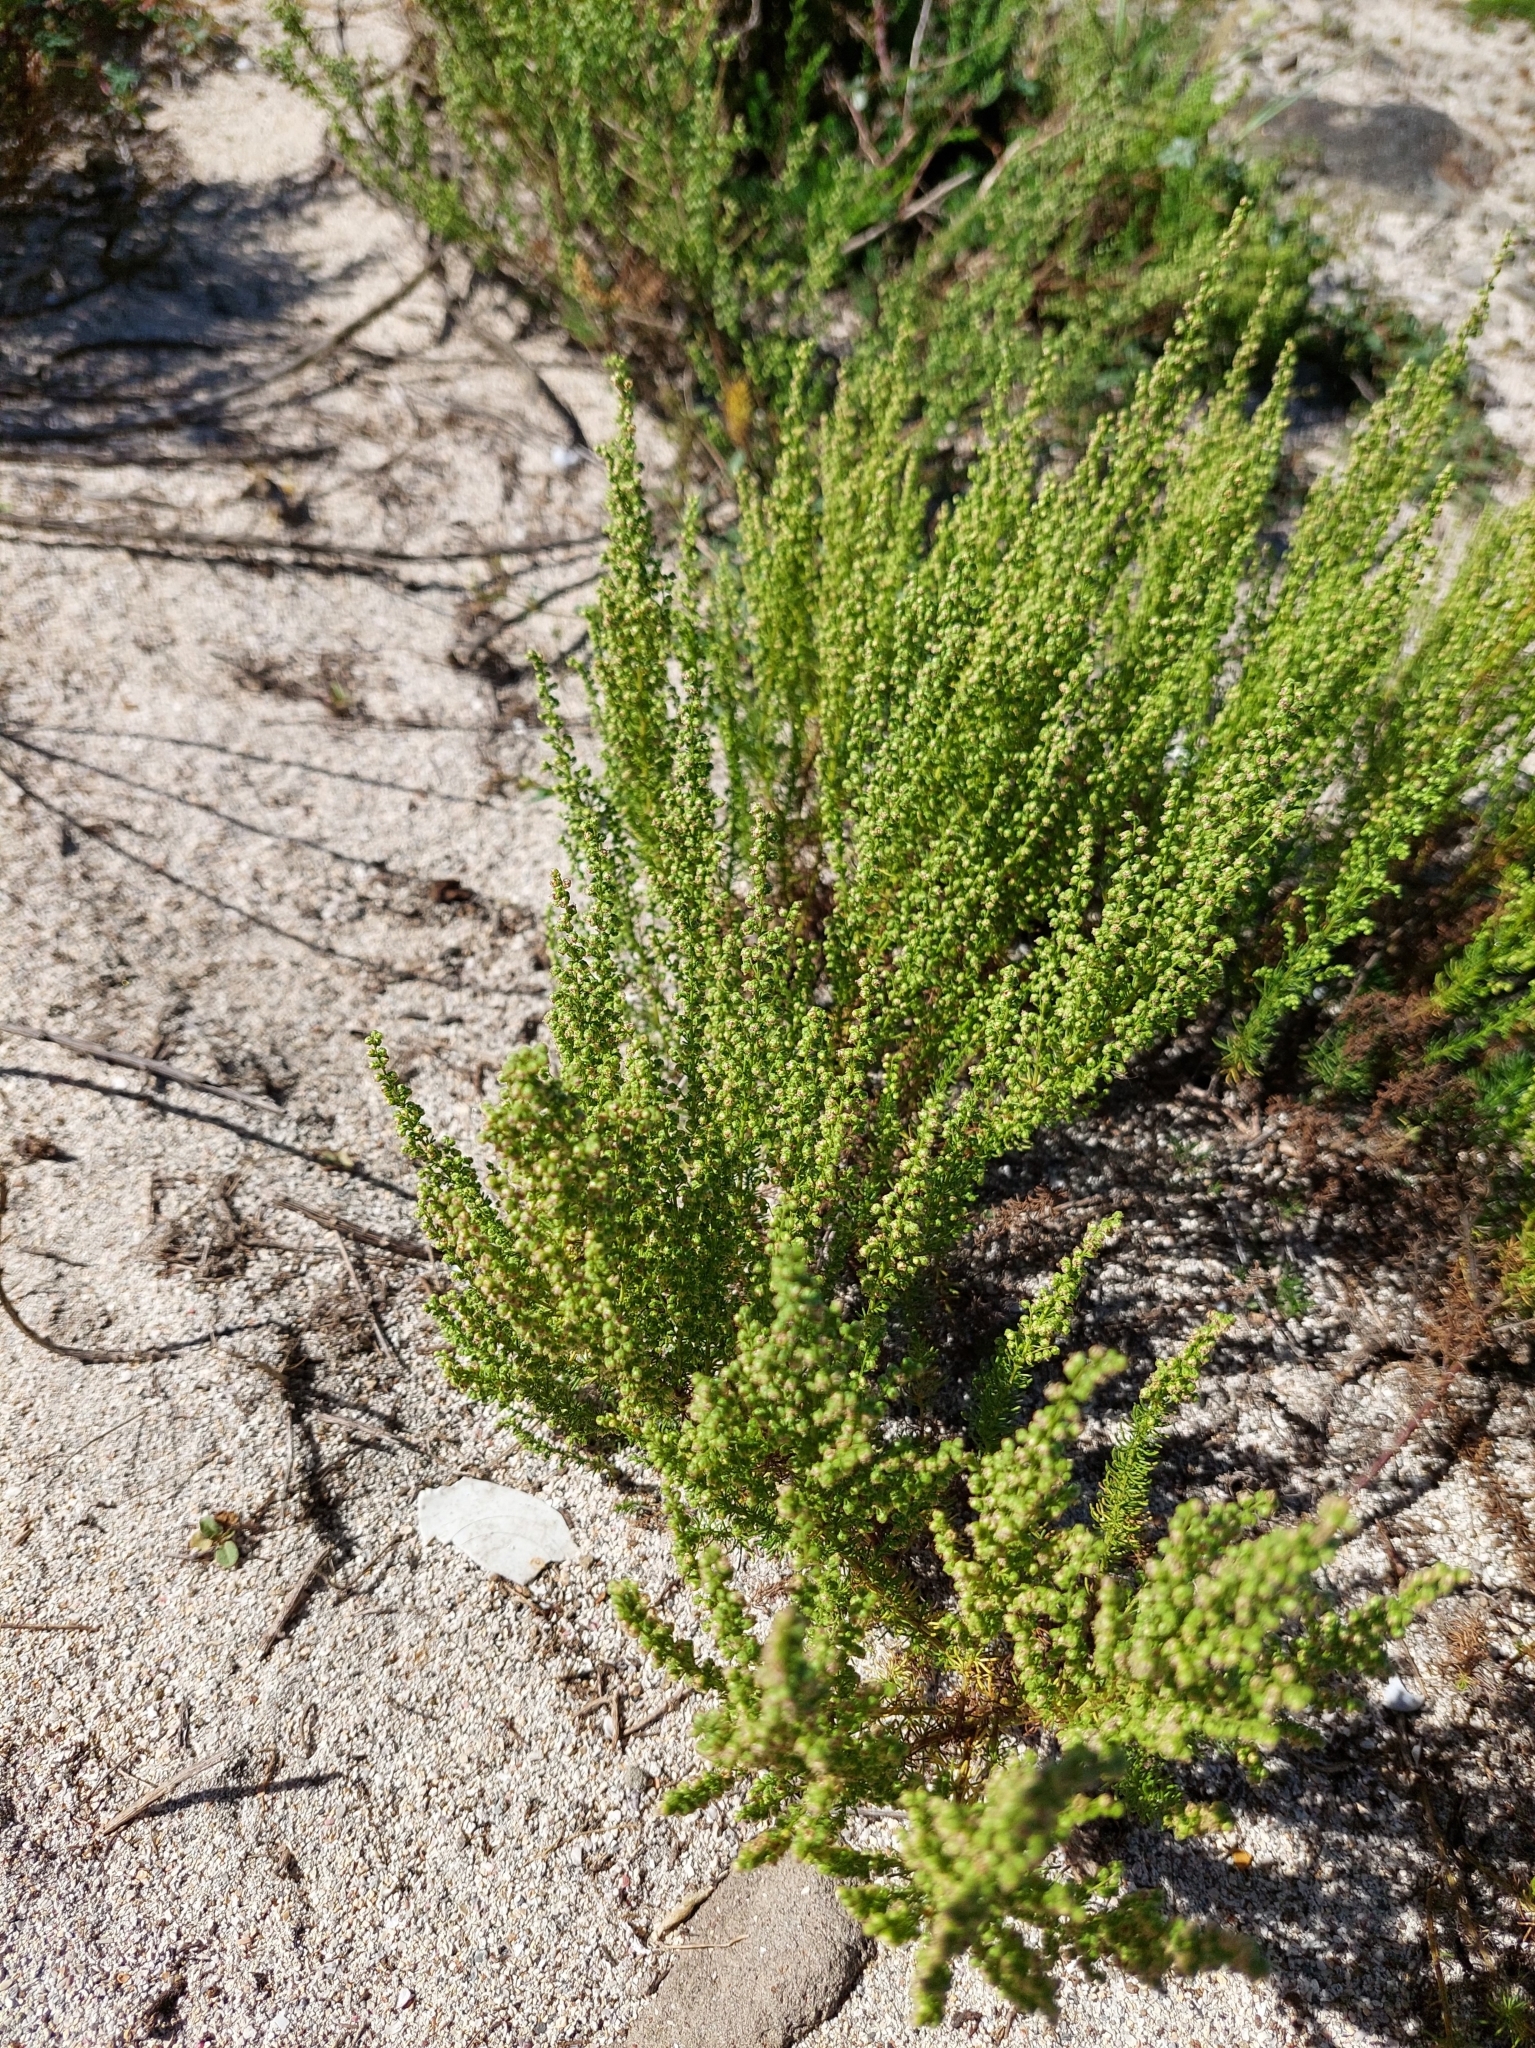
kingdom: Plantae
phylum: Tracheophyta
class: Magnoliopsida
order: Asterales
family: Asteraceae
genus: Artemisia
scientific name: Artemisia capillaris
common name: Yin-chen wormwood
